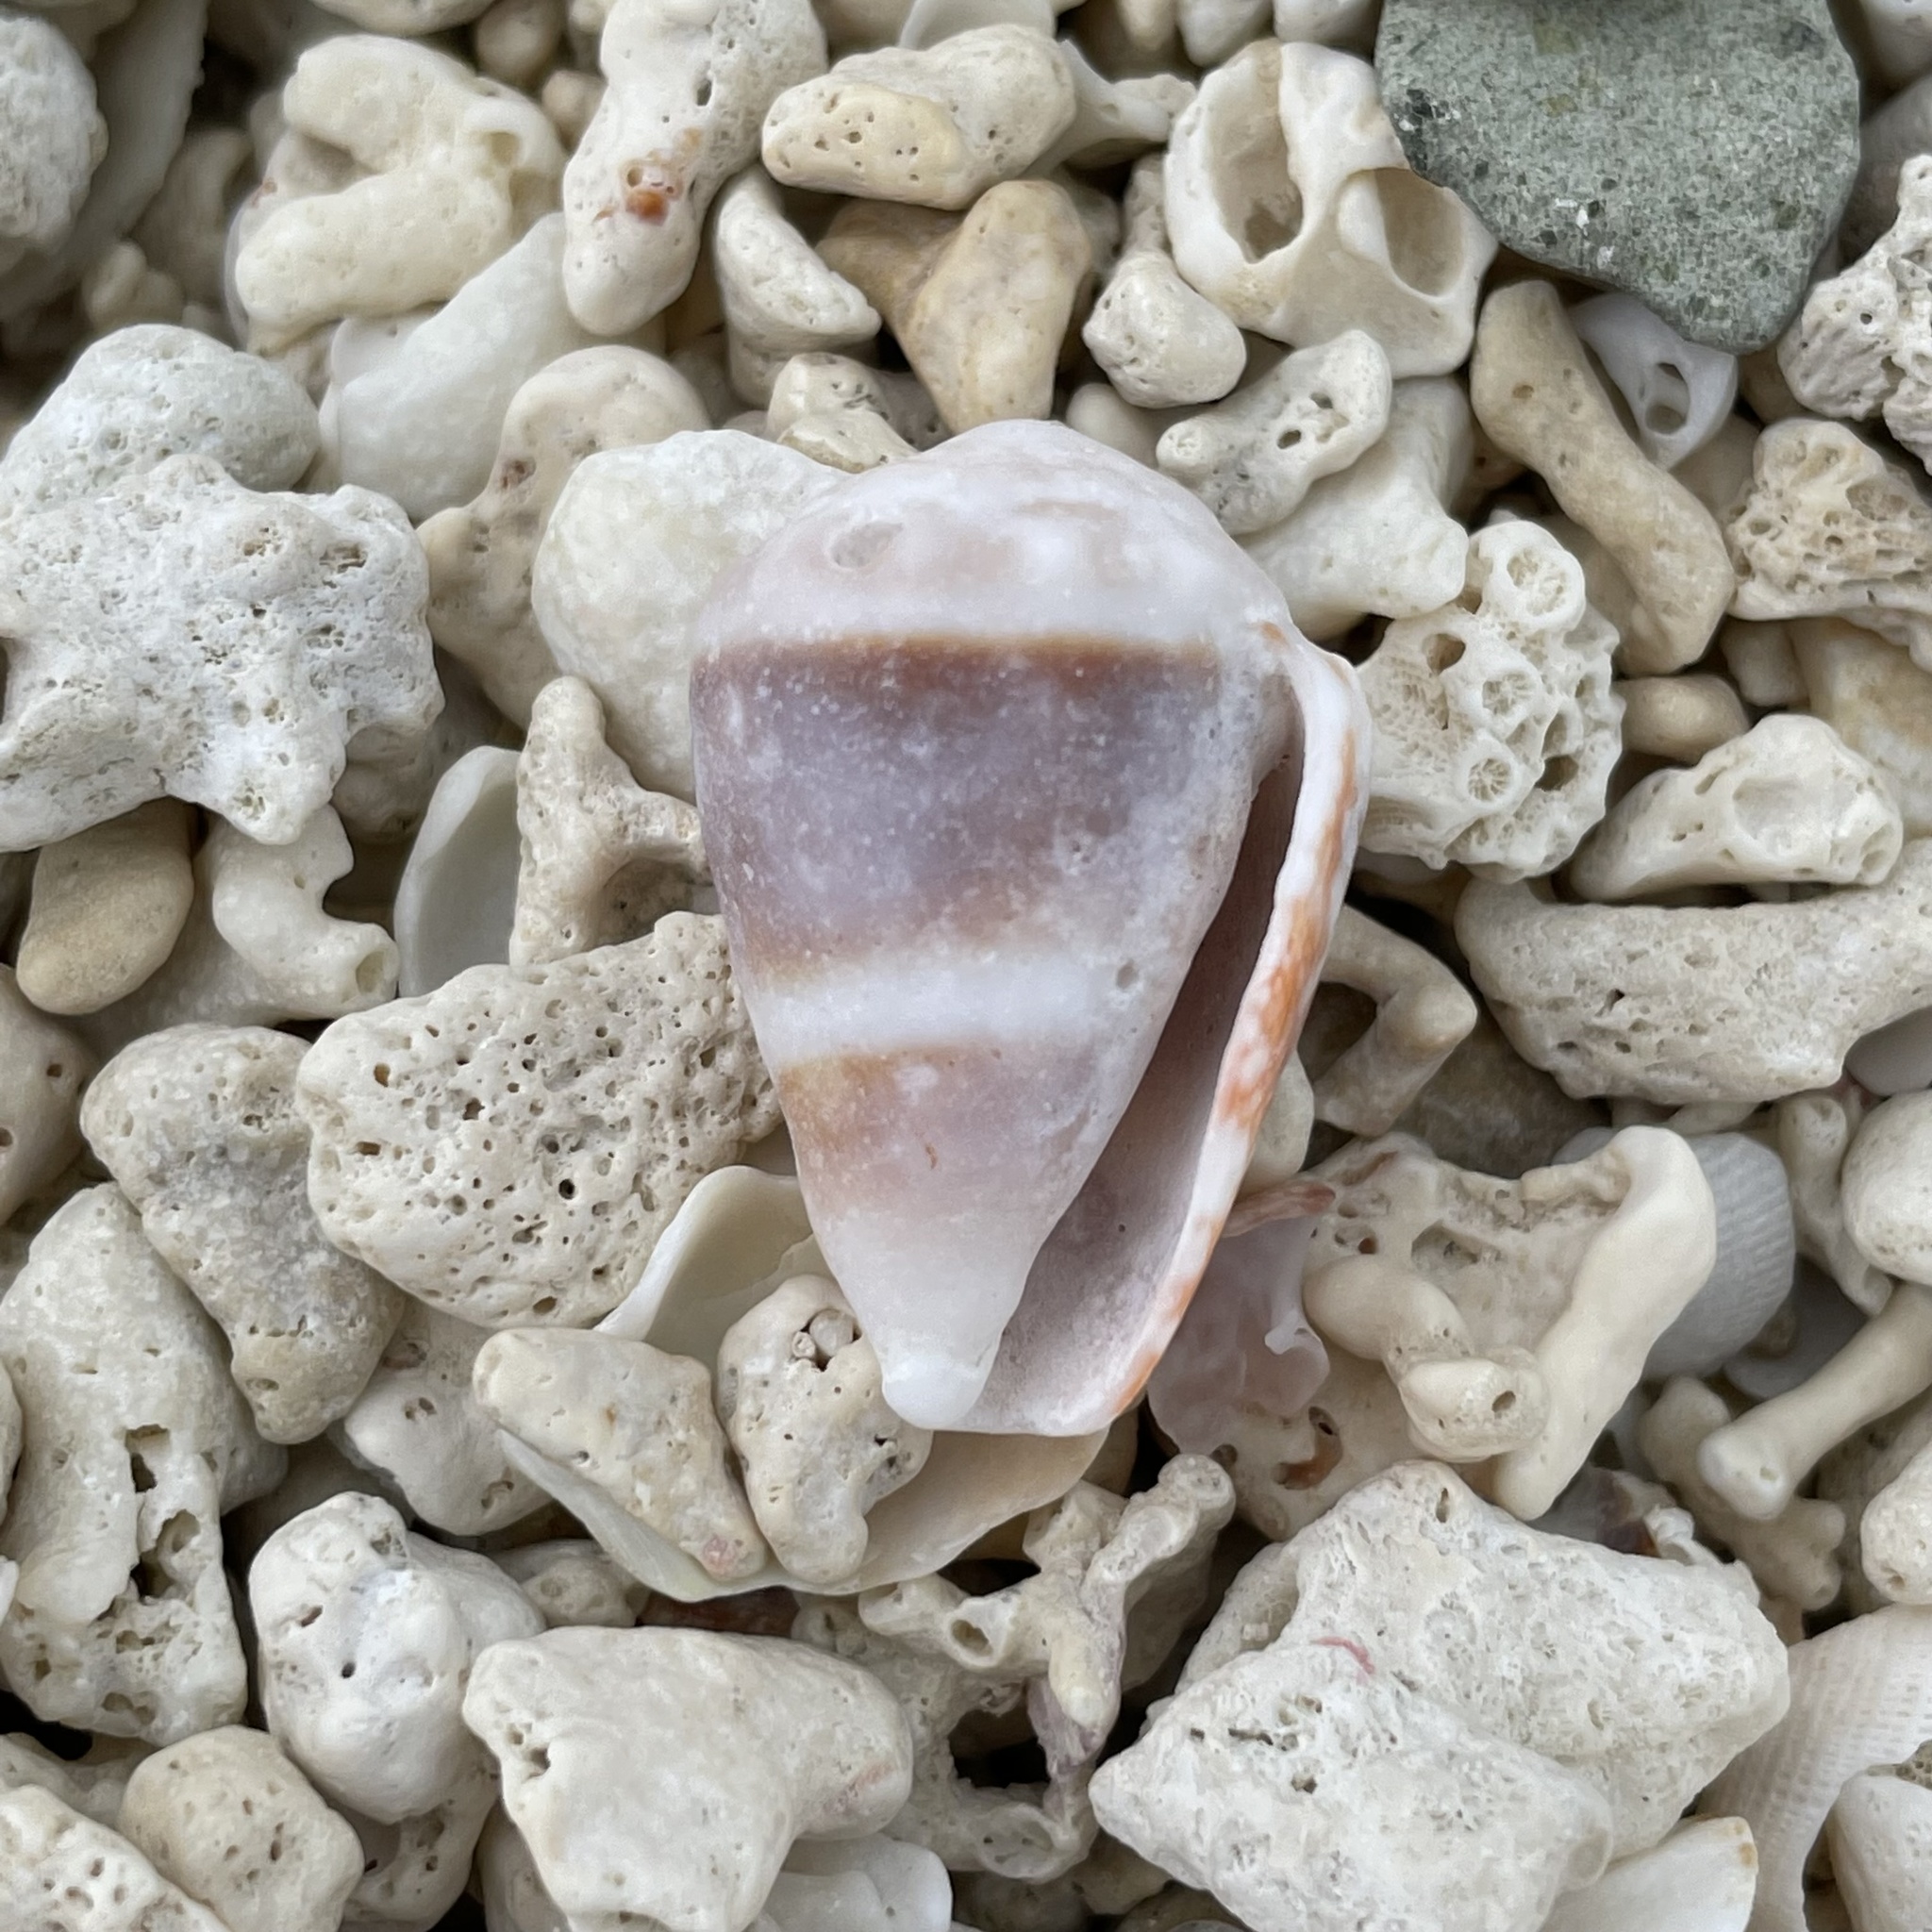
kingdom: Animalia
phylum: Mollusca
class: Gastropoda
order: Neogastropoda
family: Conidae
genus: Conus
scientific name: Conus fulgetrum
